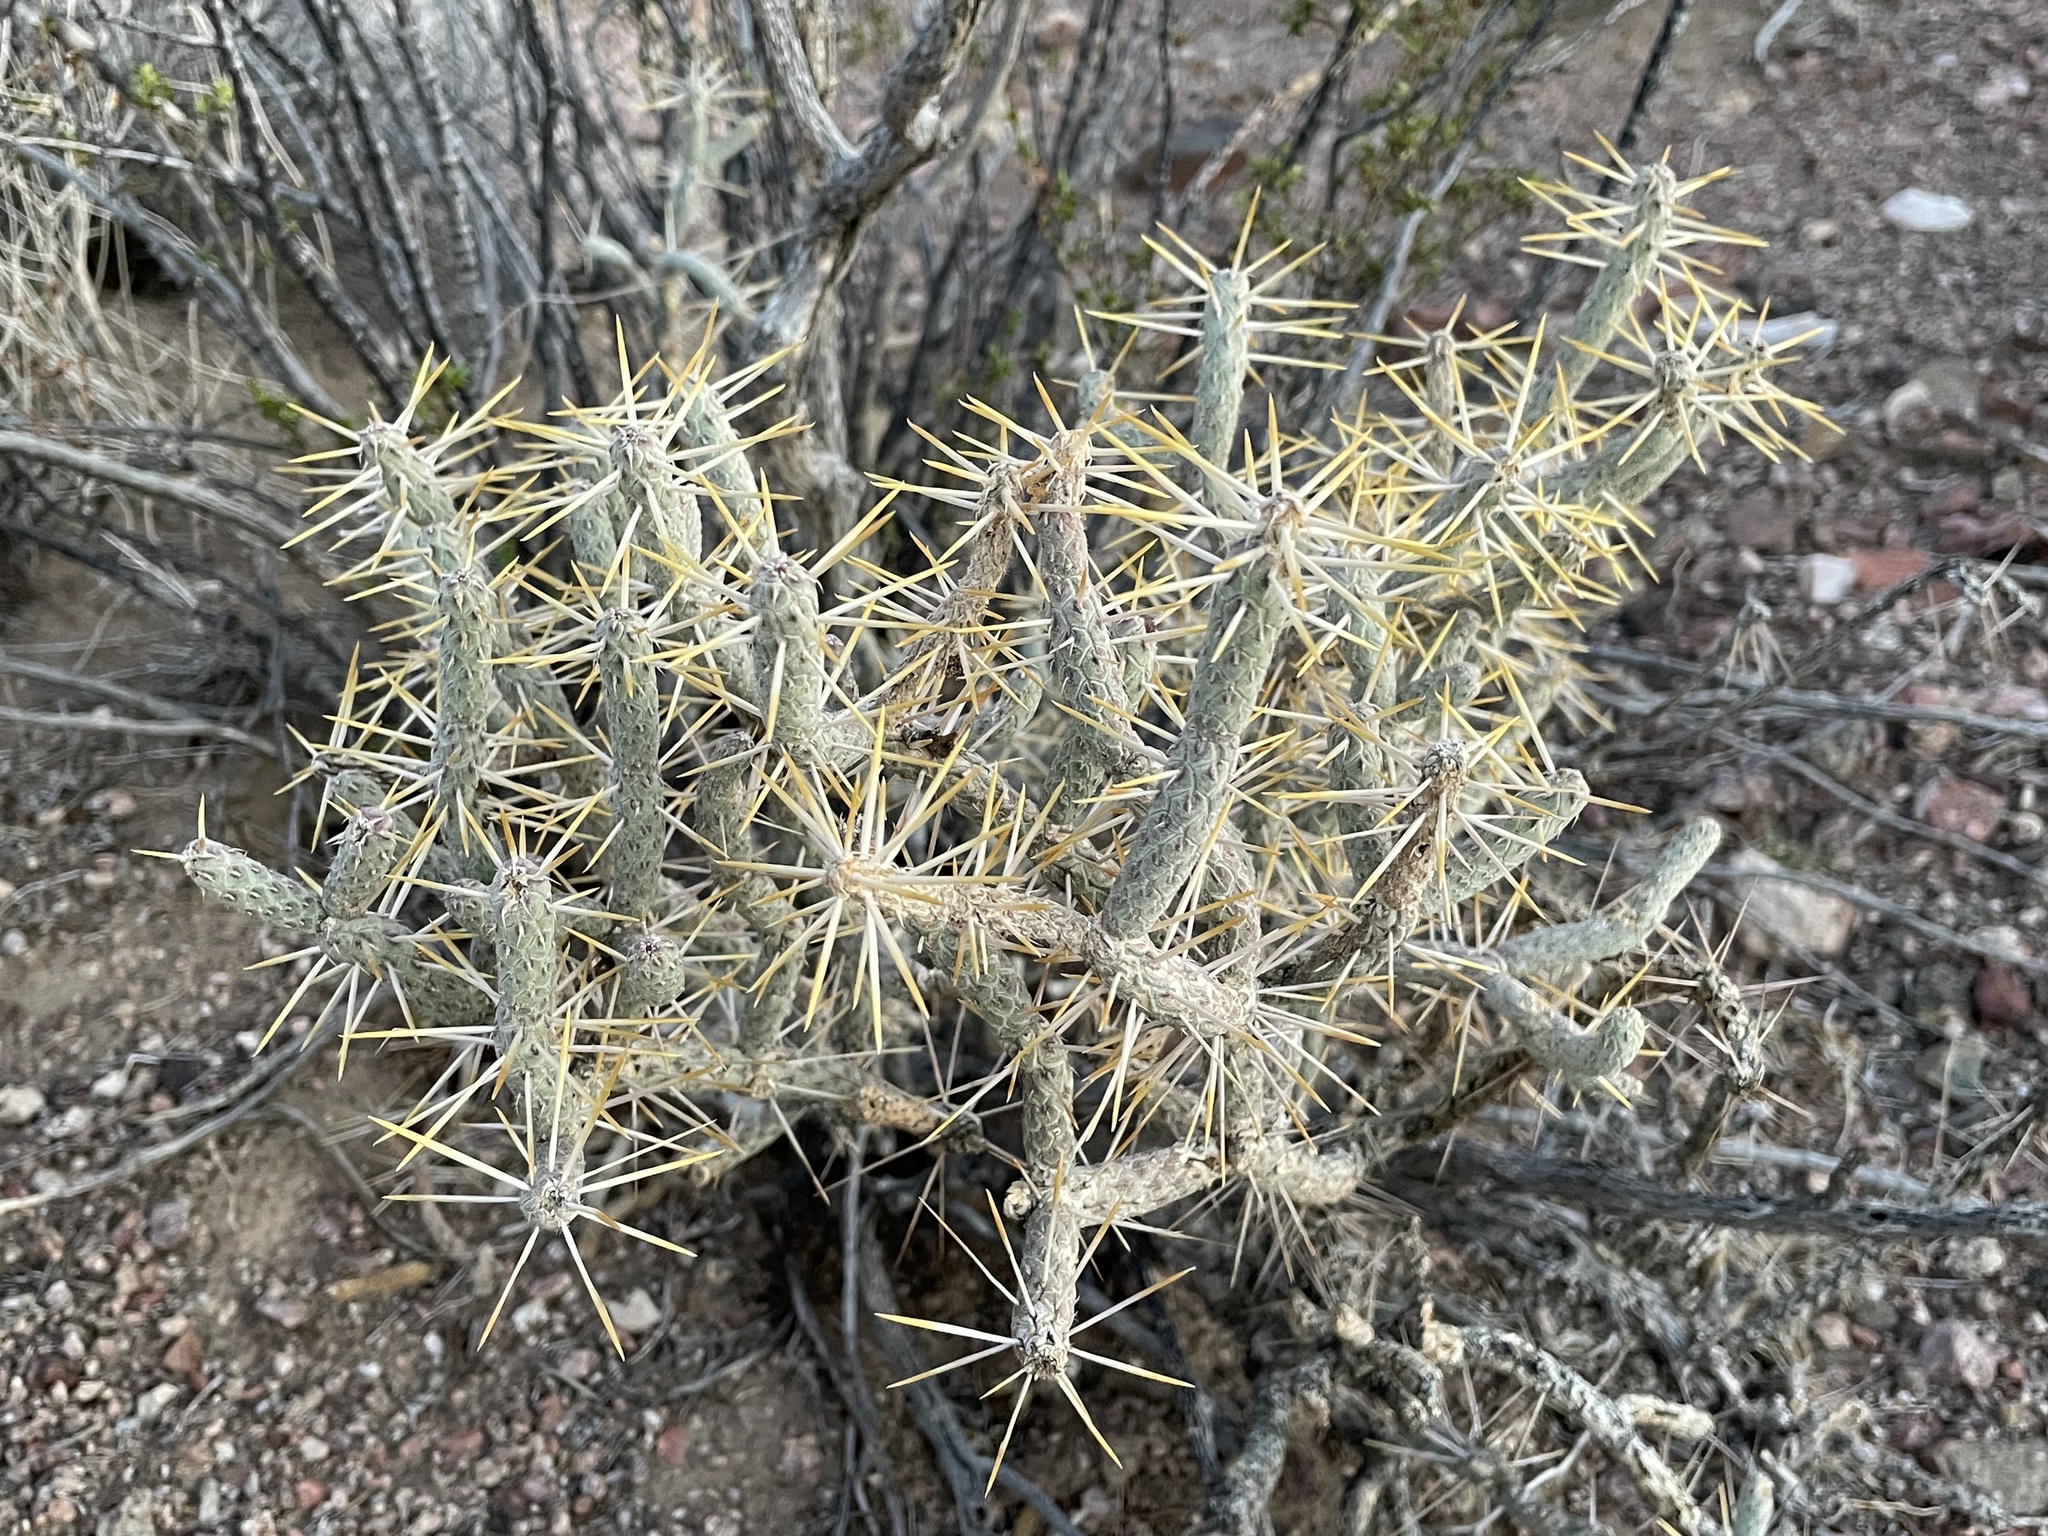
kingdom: Plantae
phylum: Tracheophyta
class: Magnoliopsida
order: Caryophyllales
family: Cactaceae
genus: Cylindropuntia
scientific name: Cylindropuntia ramosissima
